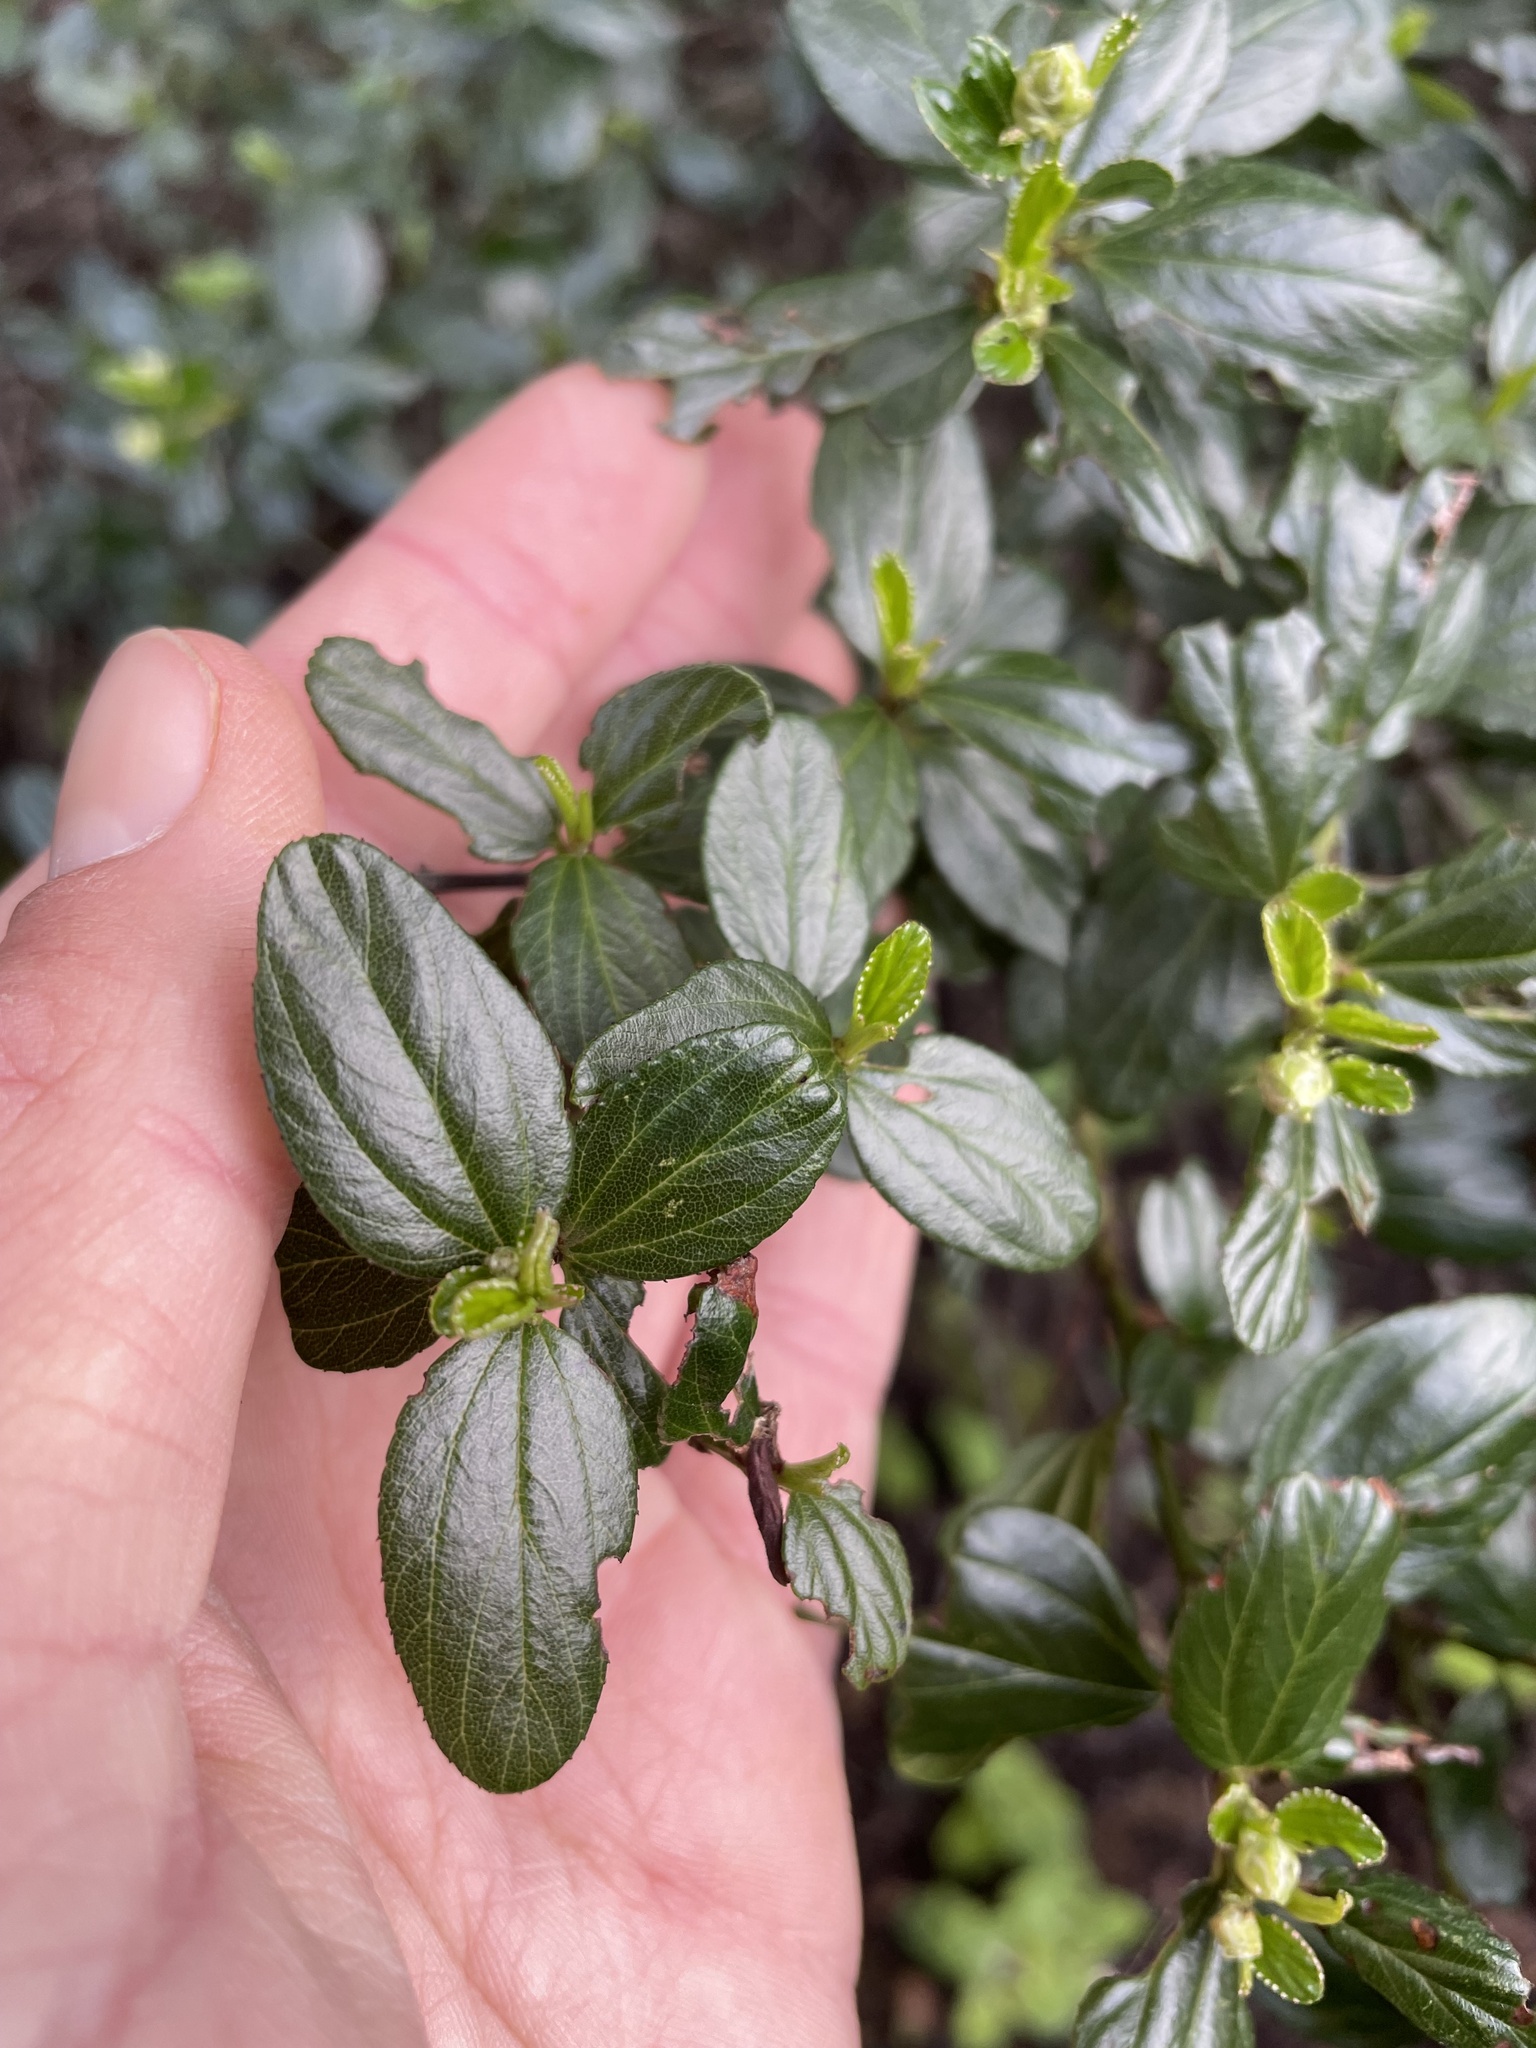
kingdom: Plantae
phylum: Tracheophyta
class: Magnoliopsida
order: Rosales
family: Rhamnaceae
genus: Ceanothus
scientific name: Ceanothus thyrsiflorus
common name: California-lilac
